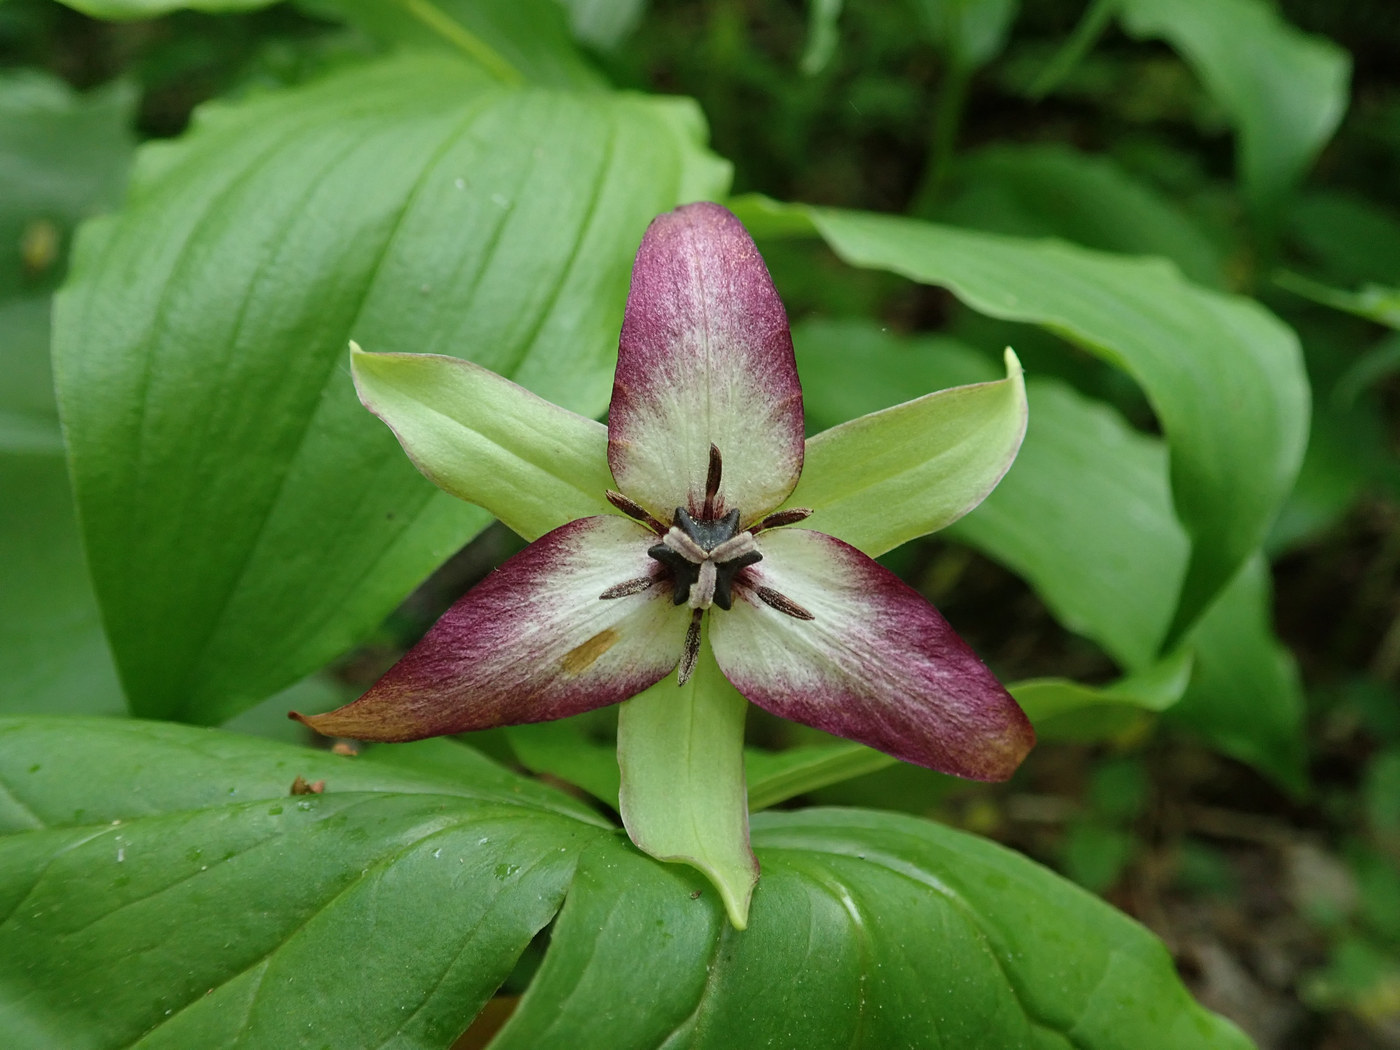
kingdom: Plantae
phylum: Tracheophyta
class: Liliopsida
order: Liliales
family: Melanthiaceae
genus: Trillium
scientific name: Trillium erectum
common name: Purple trillium
